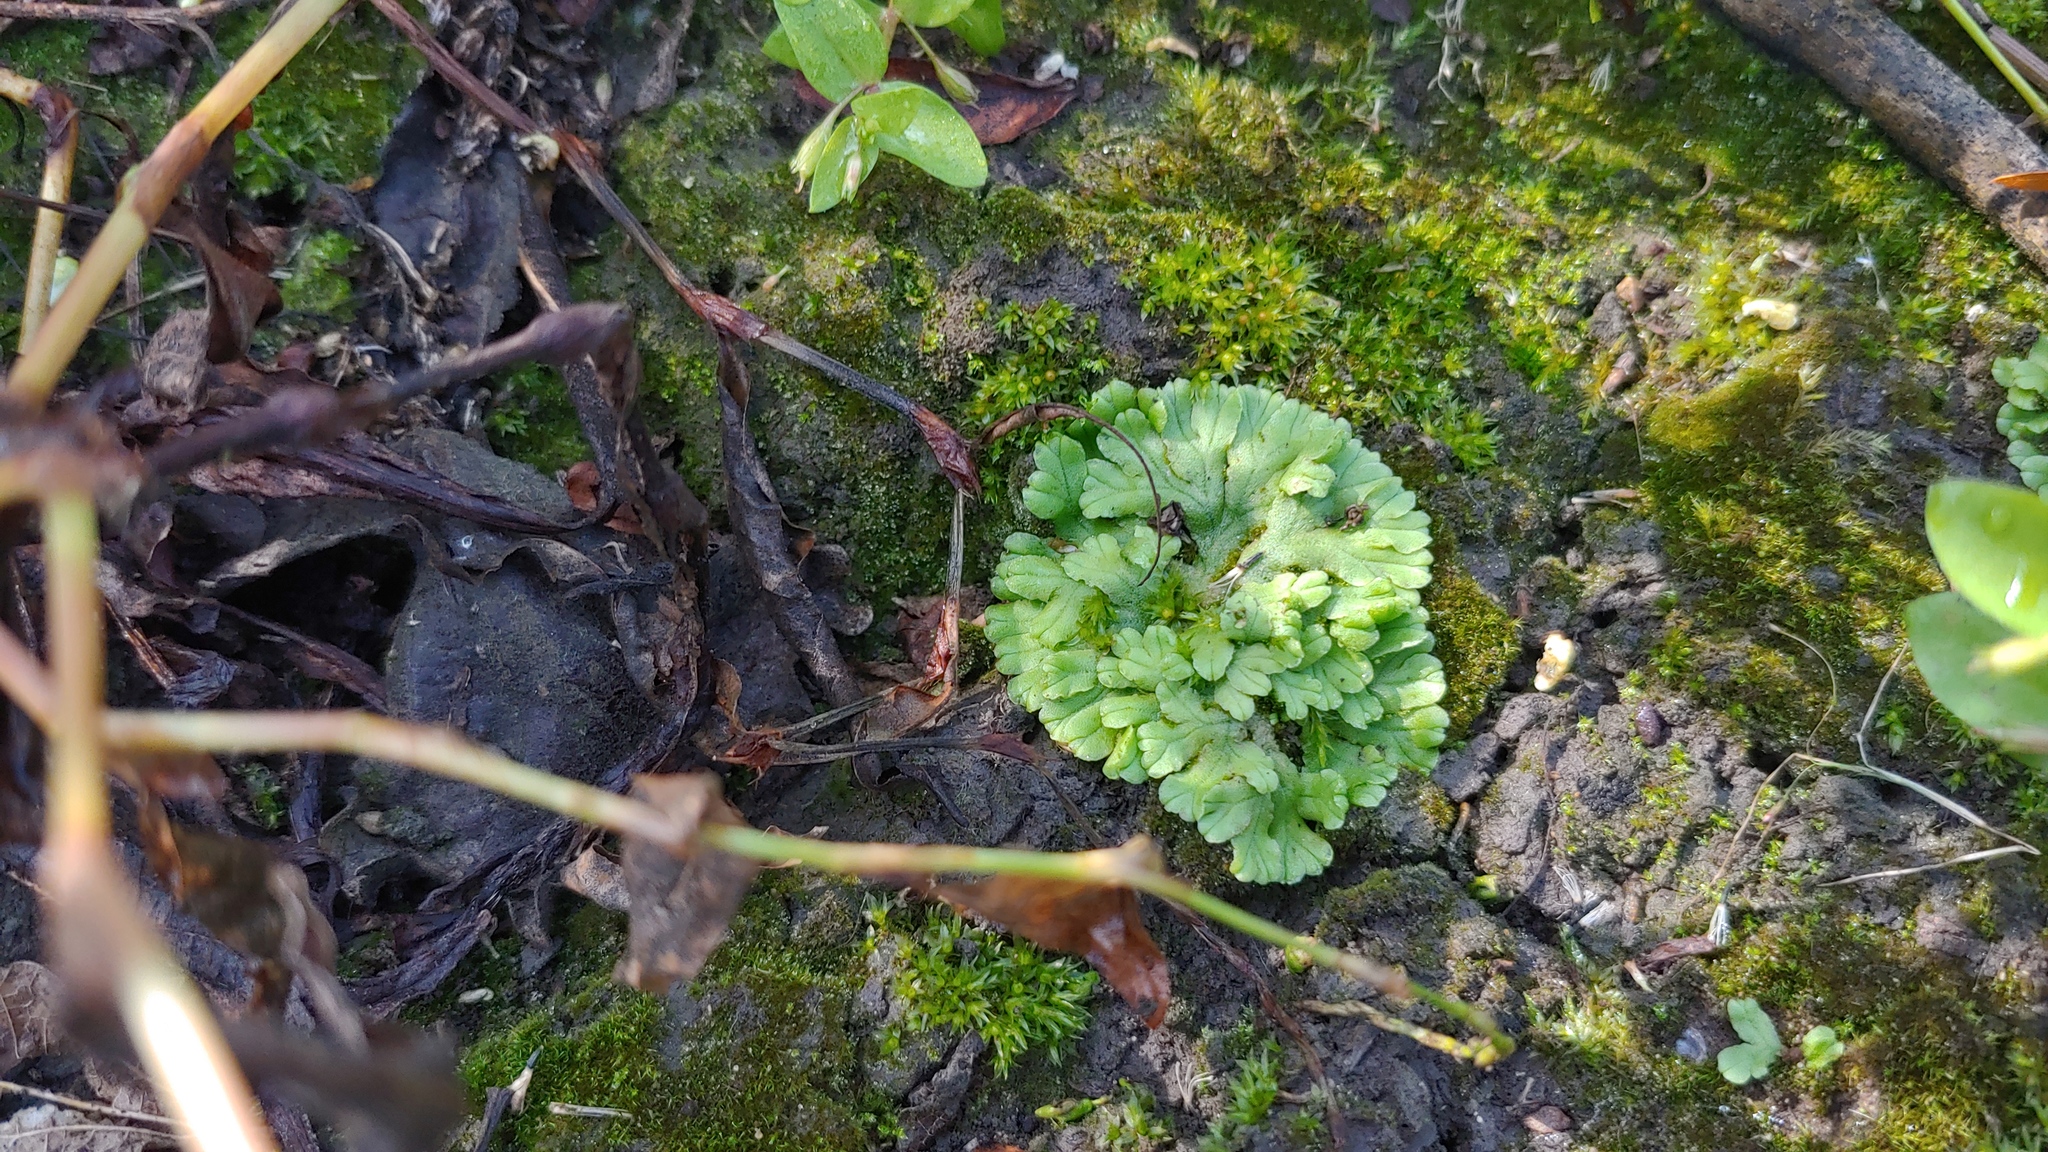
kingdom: Plantae
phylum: Marchantiophyta
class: Marchantiopsida
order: Marchantiales
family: Ricciaceae
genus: Ricciocarpos
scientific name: Ricciocarpos natans
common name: Purple-fringed liverwort
